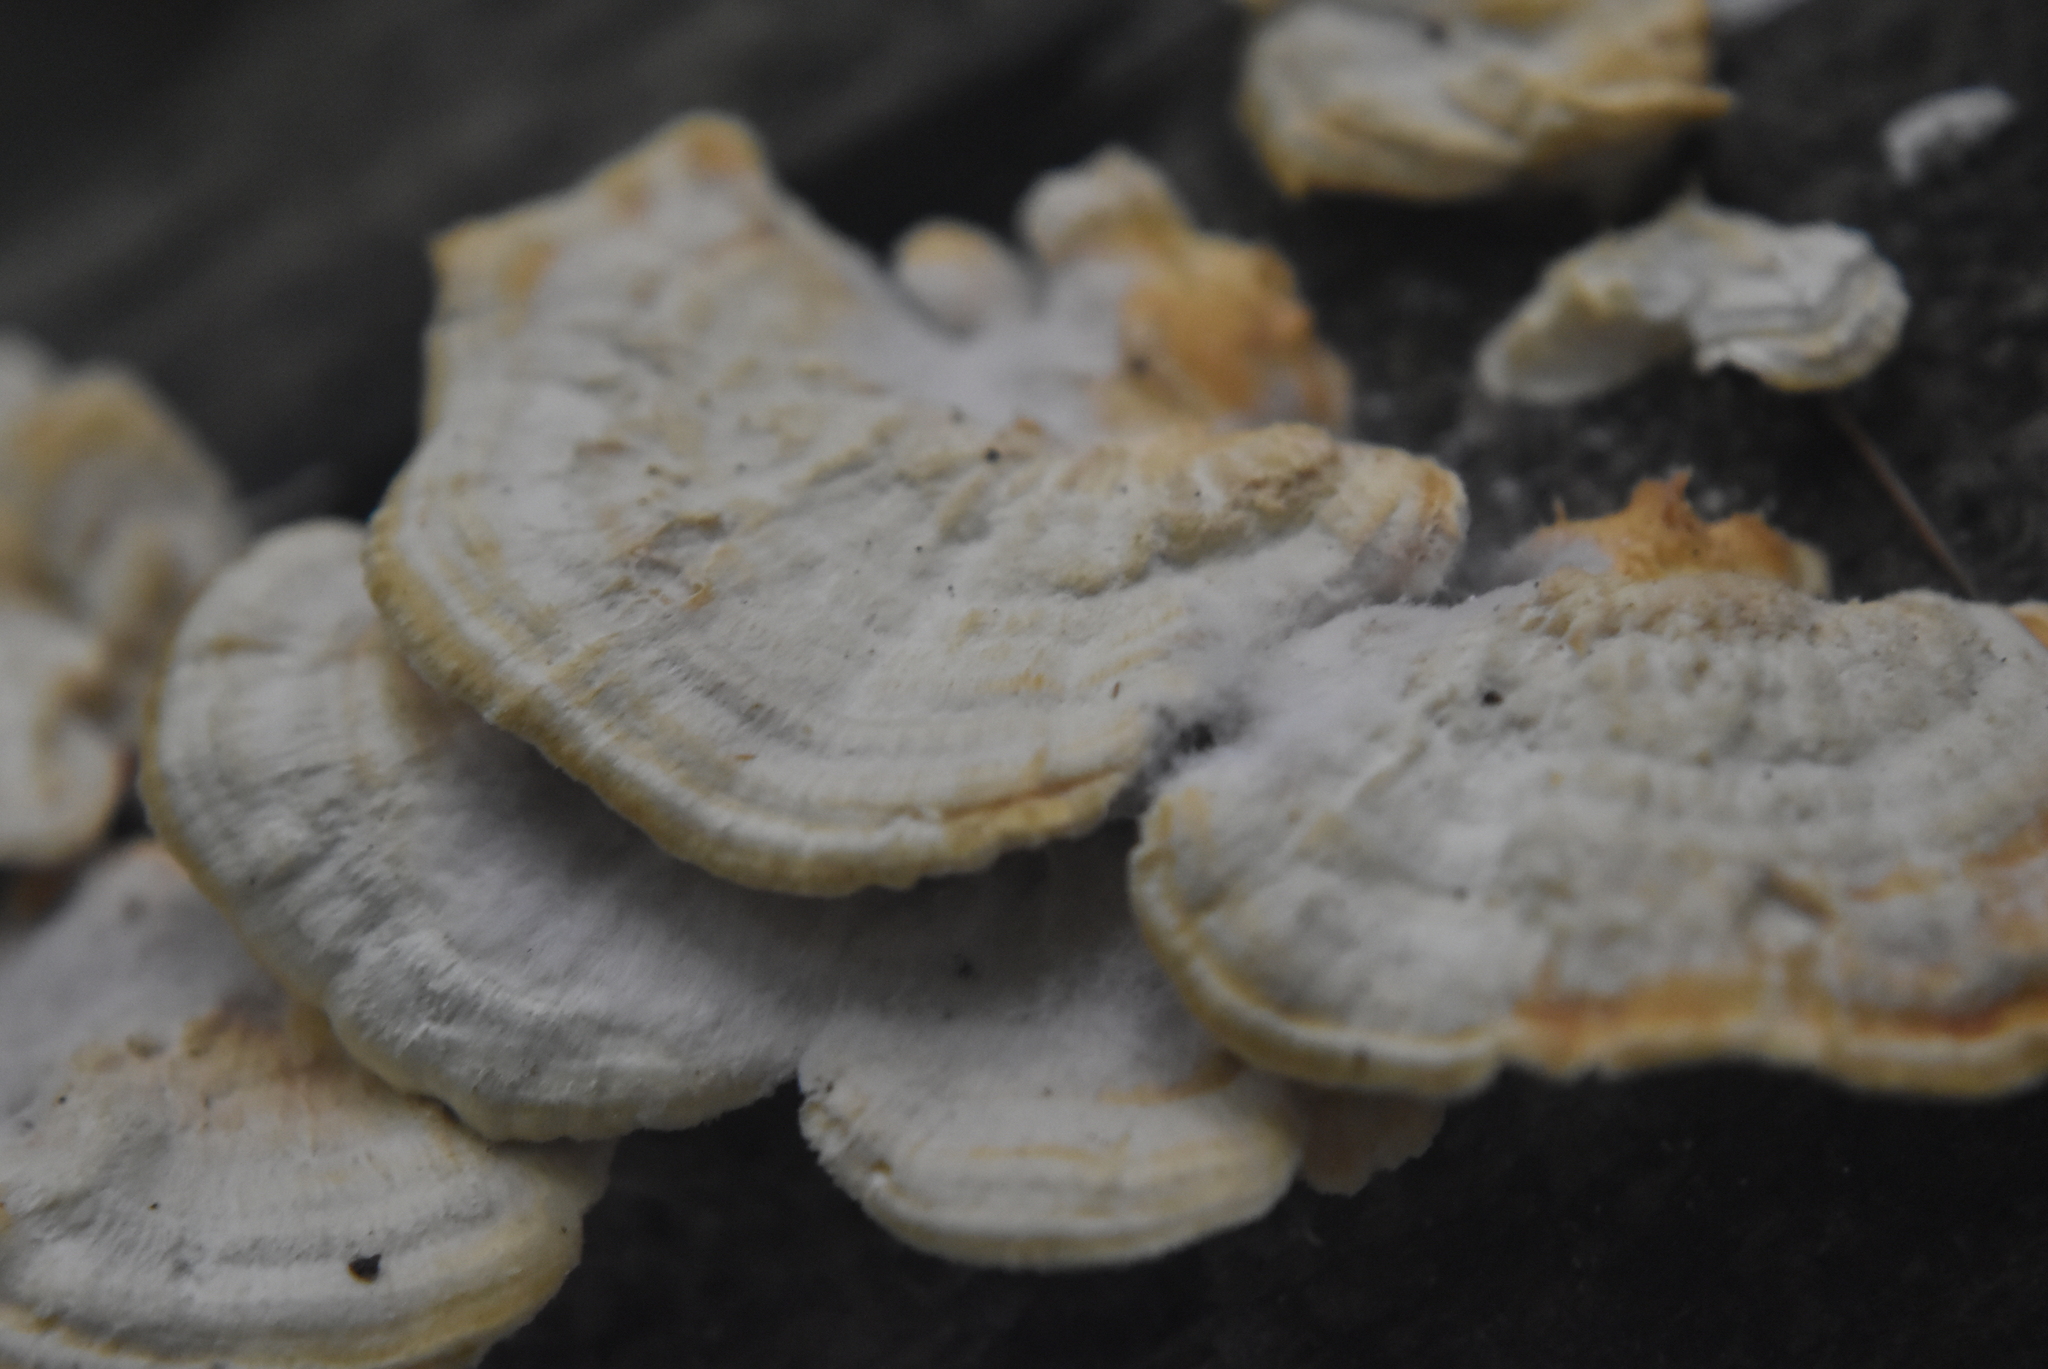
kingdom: Fungi
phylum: Basidiomycota
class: Agaricomycetes
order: Polyporales
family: Polyporaceae
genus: Trametes
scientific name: Trametes pubescens
